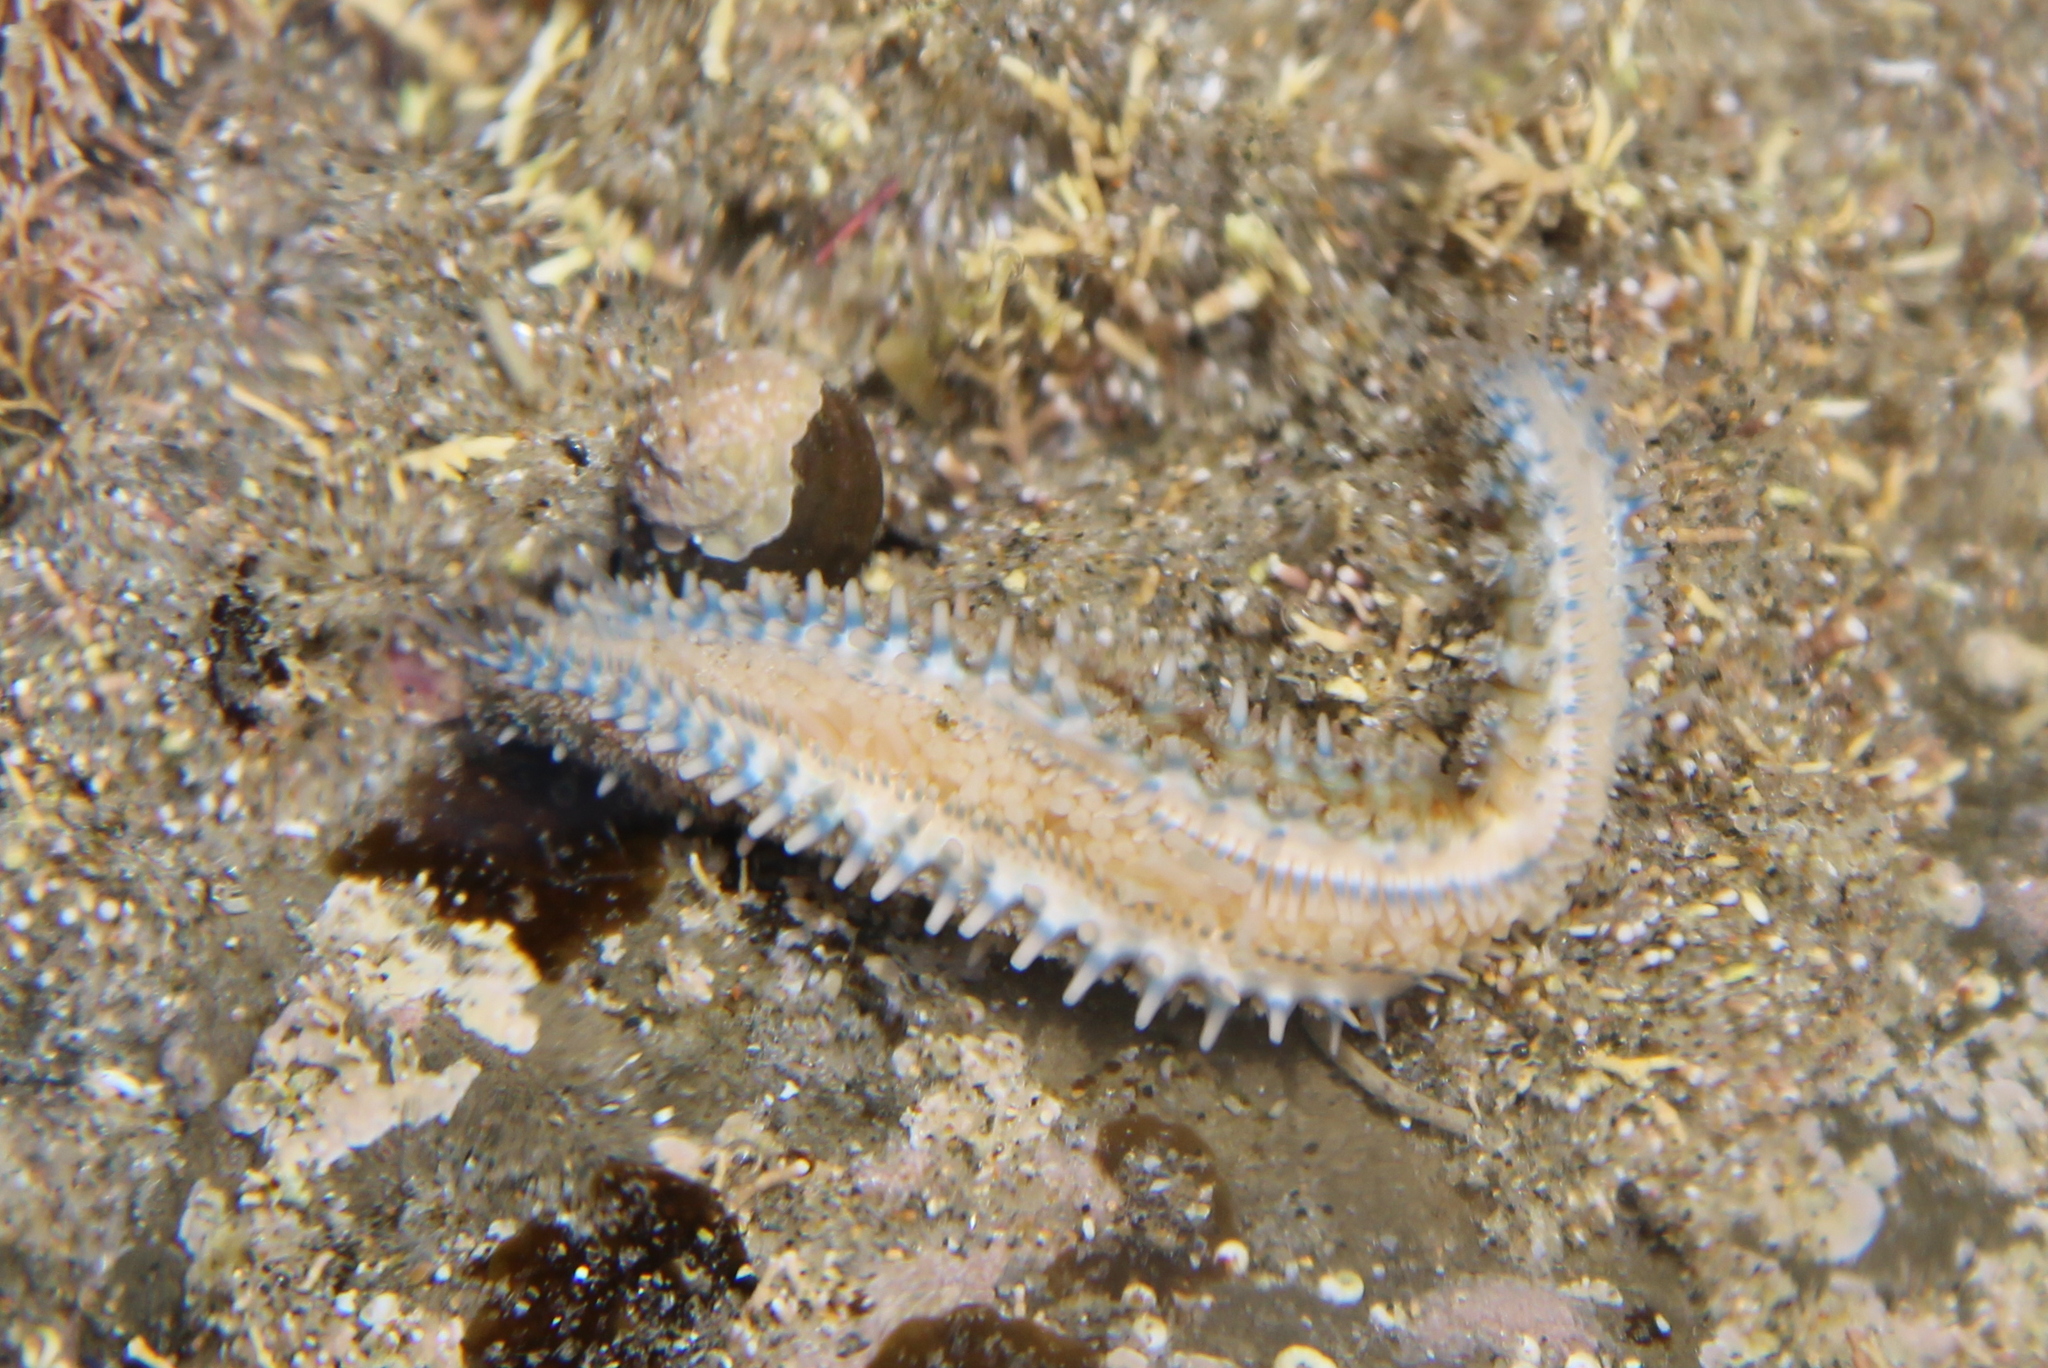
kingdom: Animalia
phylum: Echinodermata
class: Asteroidea
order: Forcipulatida
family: Asteriidae
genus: Coscinasterias
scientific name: Coscinasterias muricata
